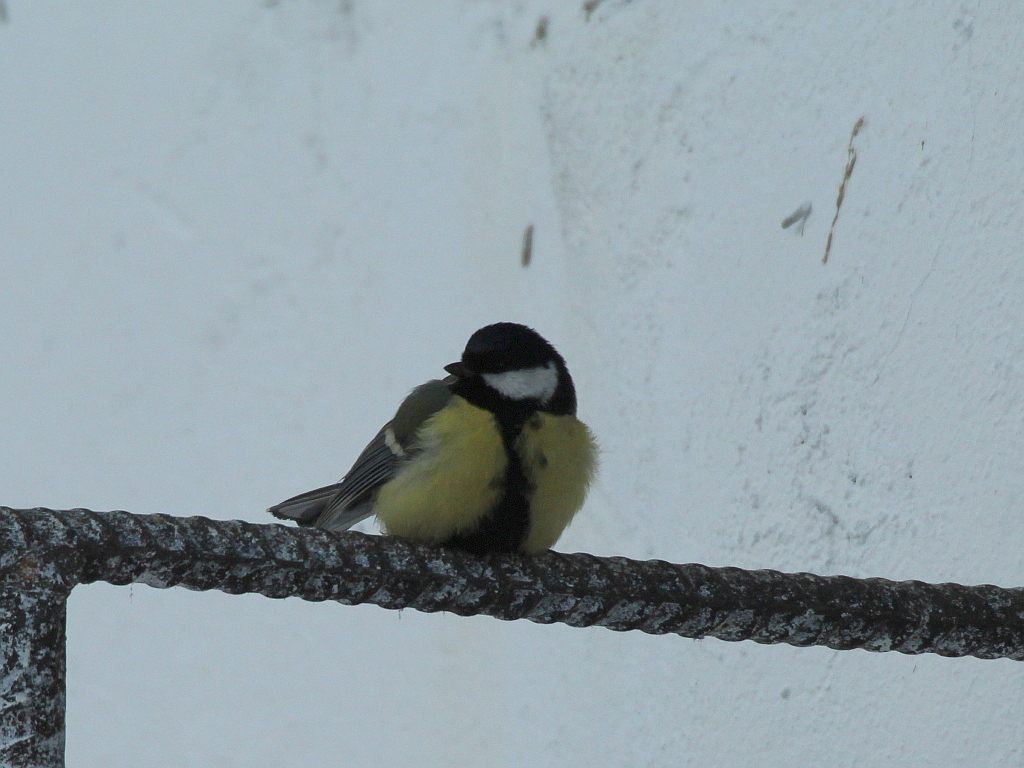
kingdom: Animalia
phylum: Chordata
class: Aves
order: Passeriformes
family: Paridae
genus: Parus
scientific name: Parus major
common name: Great tit
